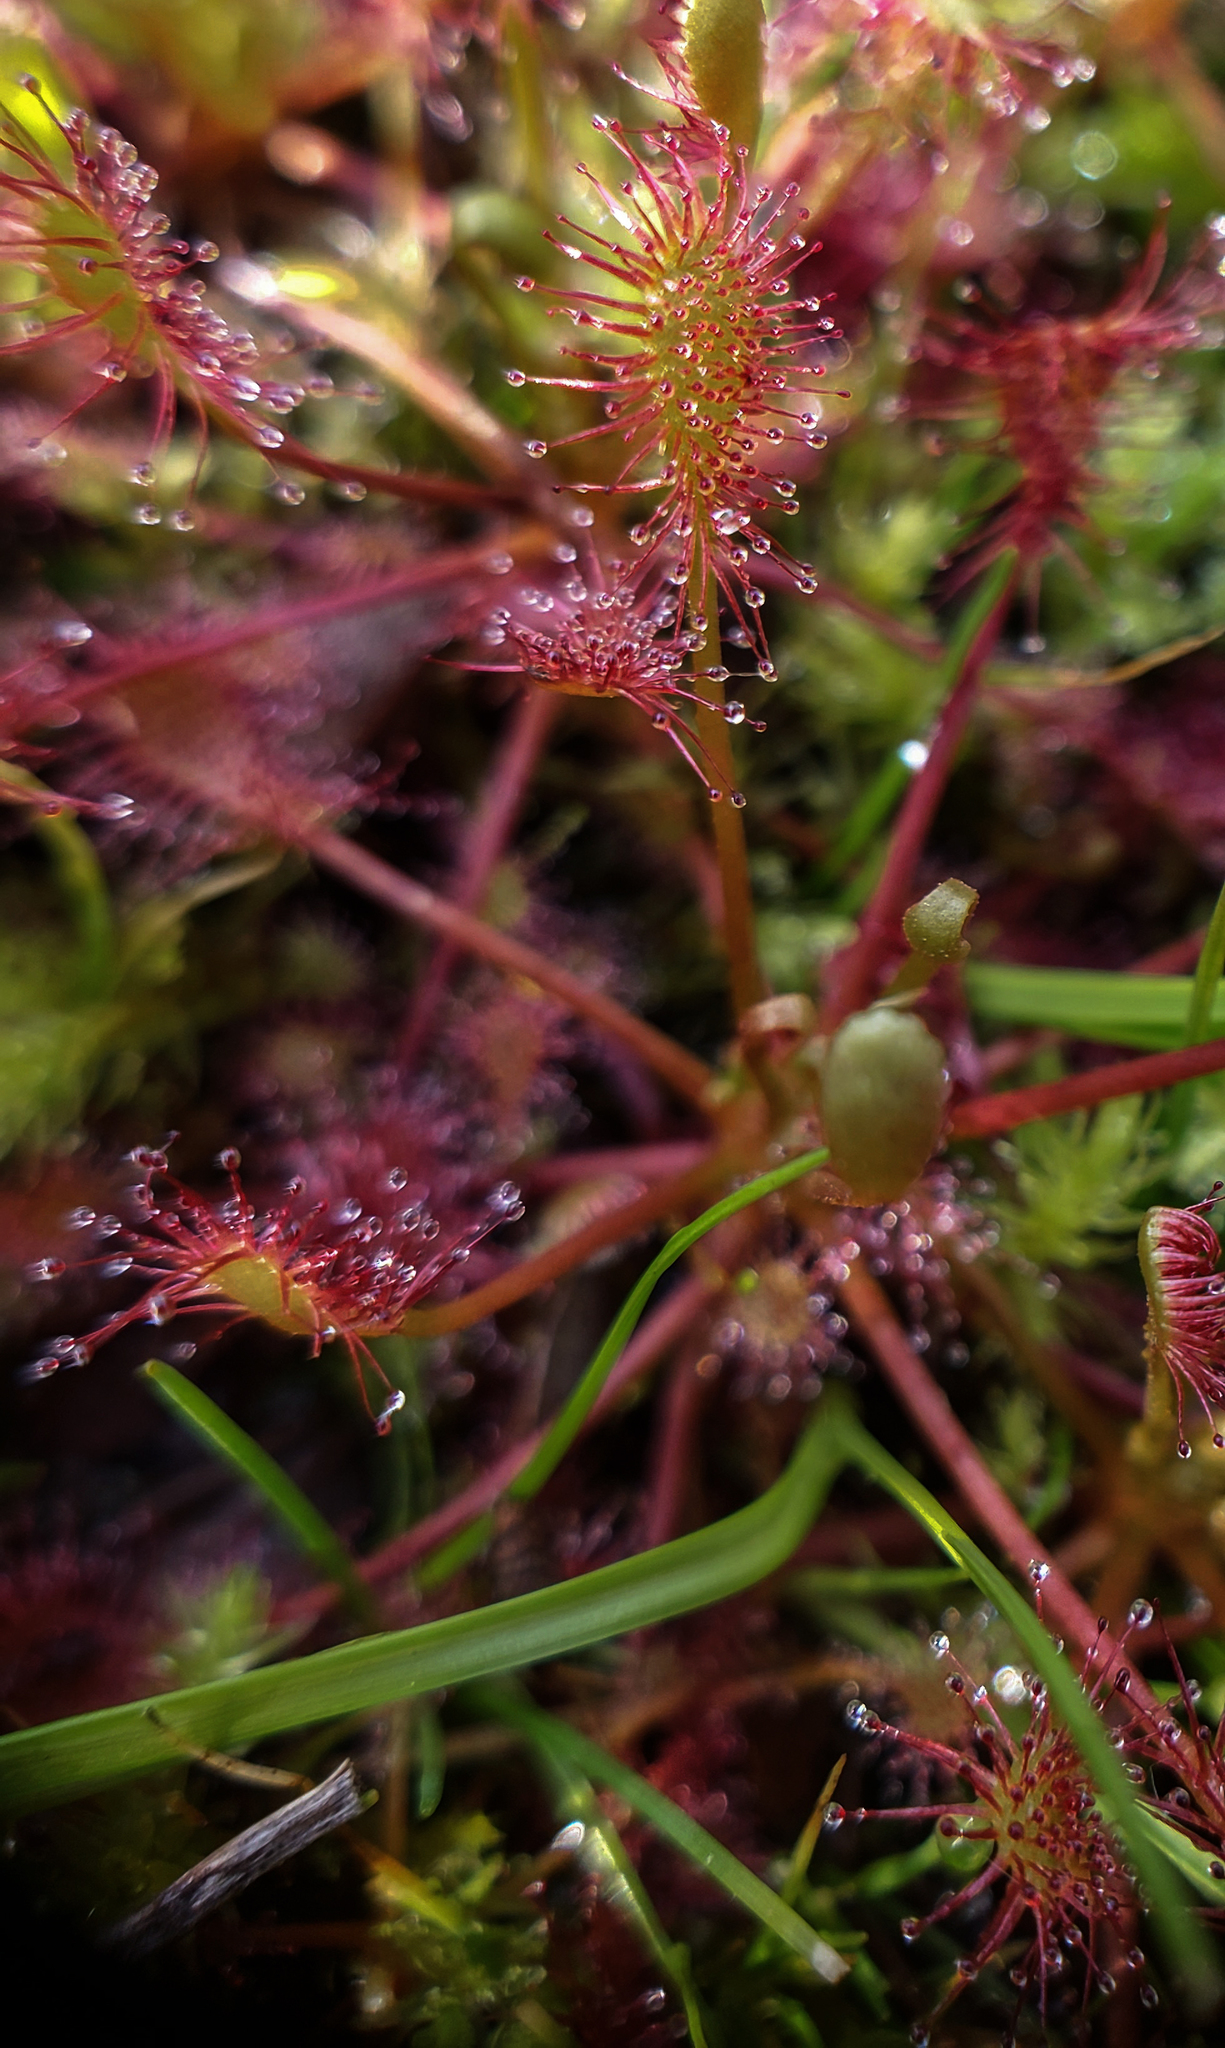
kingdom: Plantae
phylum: Tracheophyta
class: Magnoliopsida
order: Caryophyllales
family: Droseraceae
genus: Drosera
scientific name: Drosera intermedia
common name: Oblong-leaved sundew
